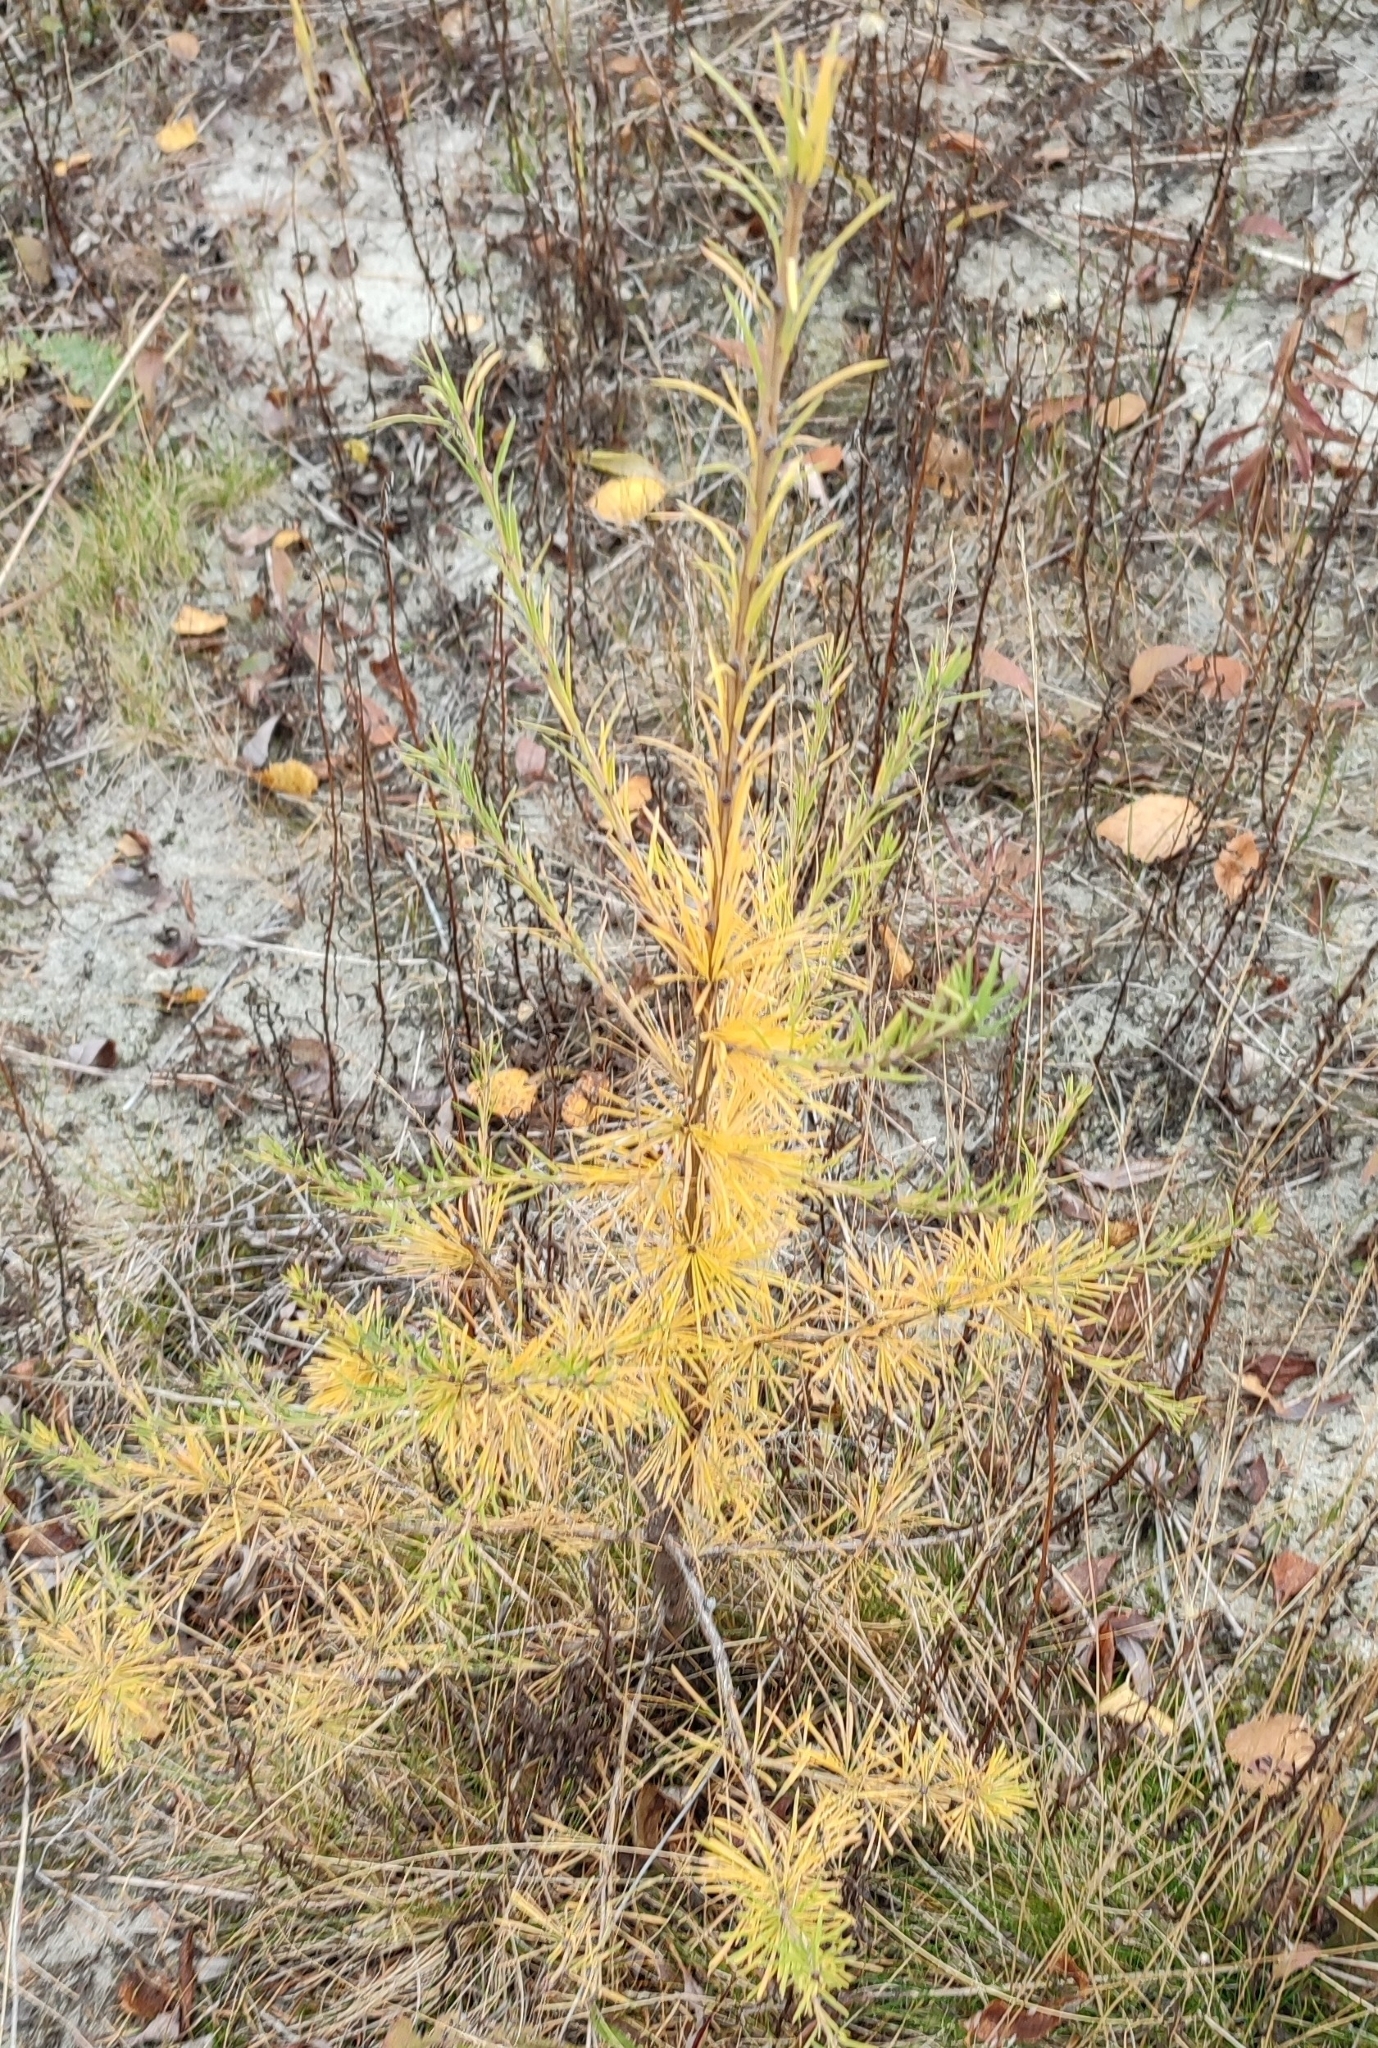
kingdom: Plantae
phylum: Tracheophyta
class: Pinopsida
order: Pinales
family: Pinaceae
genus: Larix
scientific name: Larix sibirica
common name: Siberian larch
